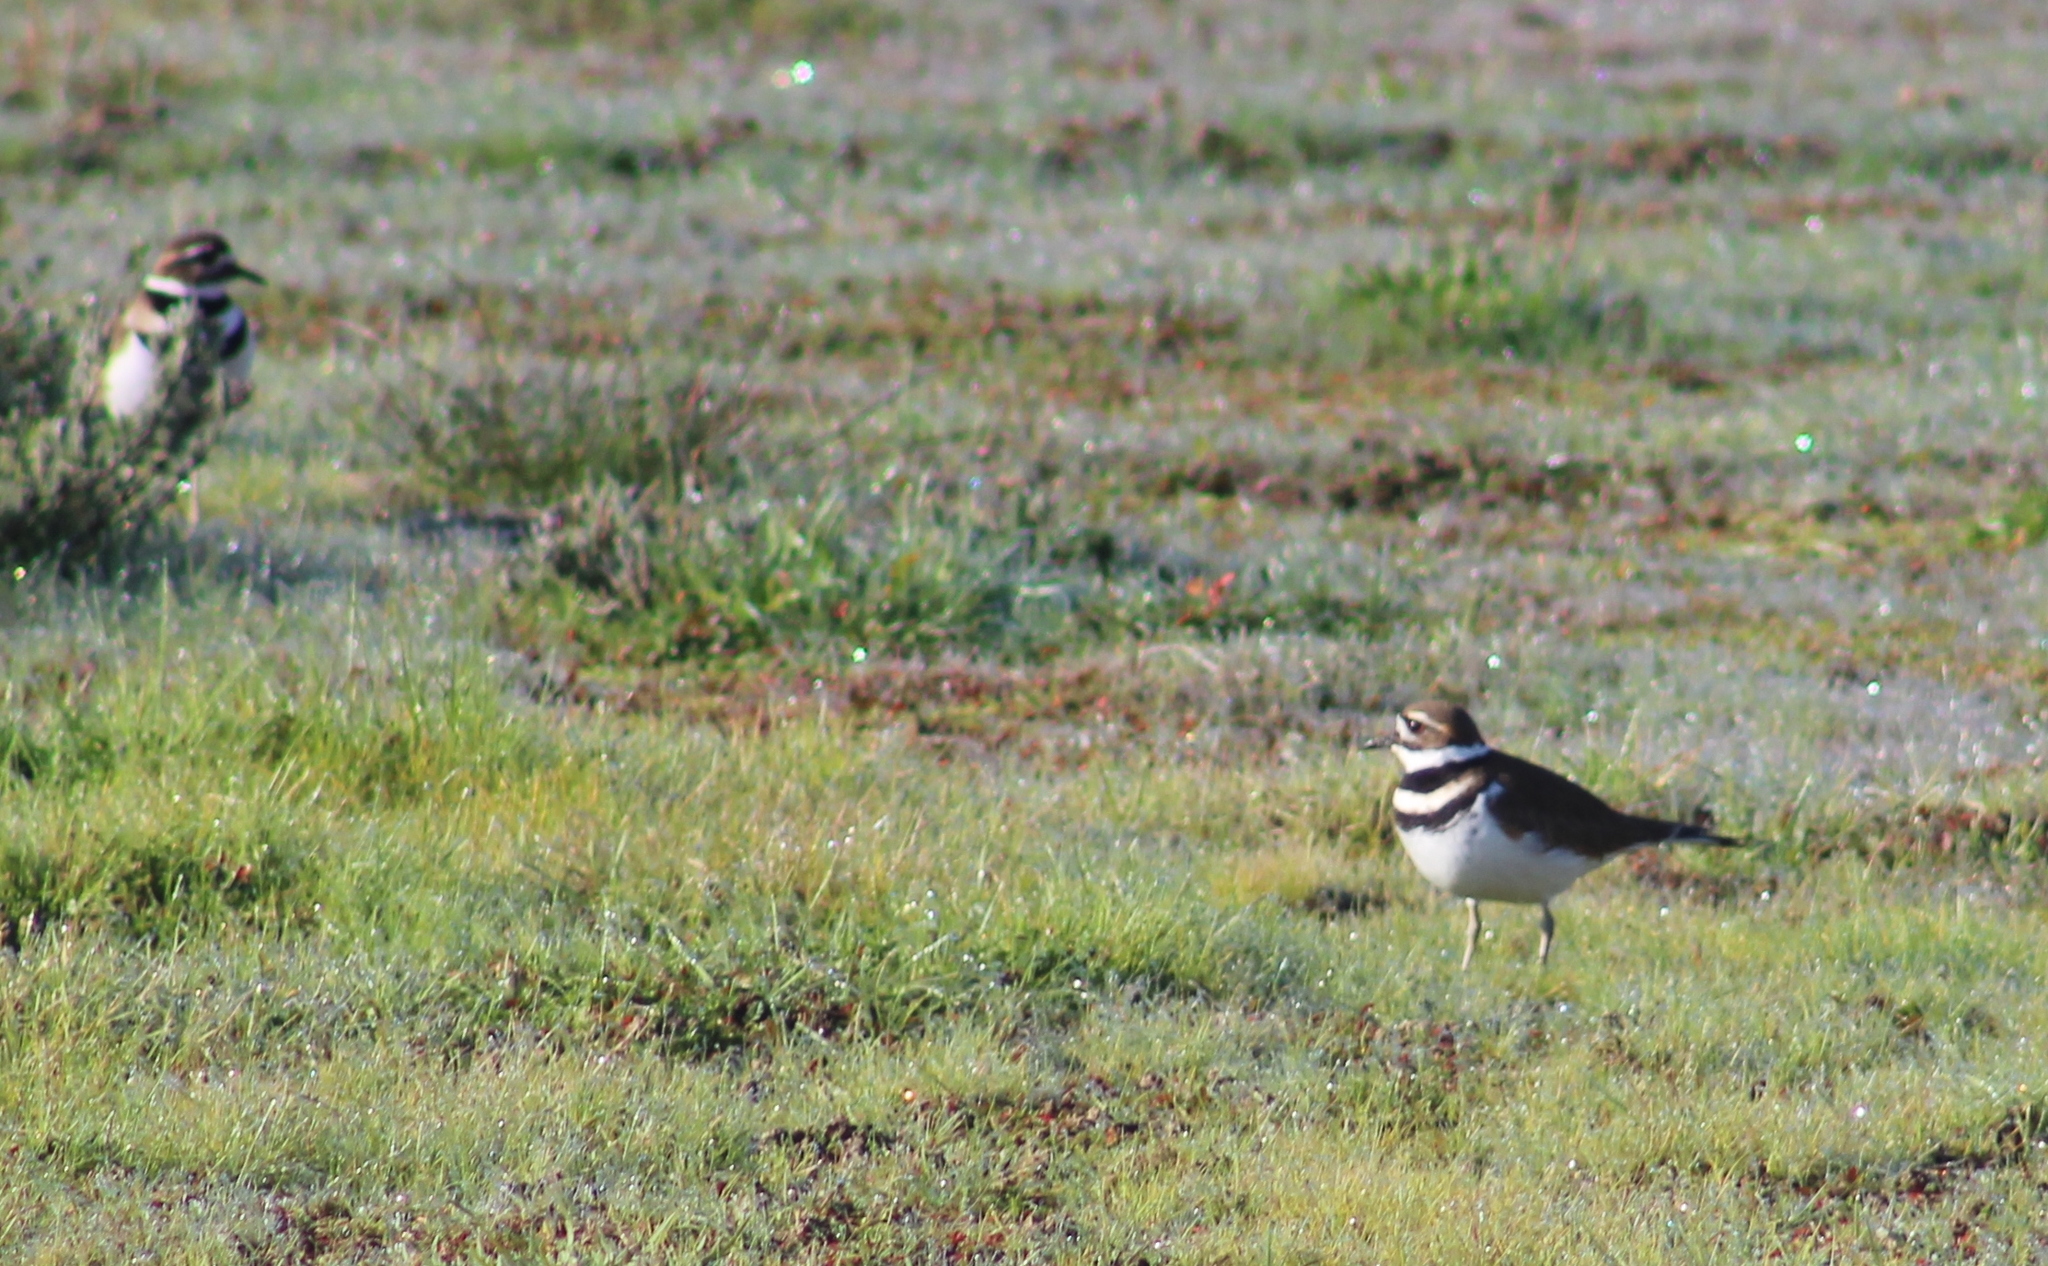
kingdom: Animalia
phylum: Chordata
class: Aves
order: Charadriiformes
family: Charadriidae
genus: Charadrius
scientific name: Charadrius vociferus
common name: Killdeer
